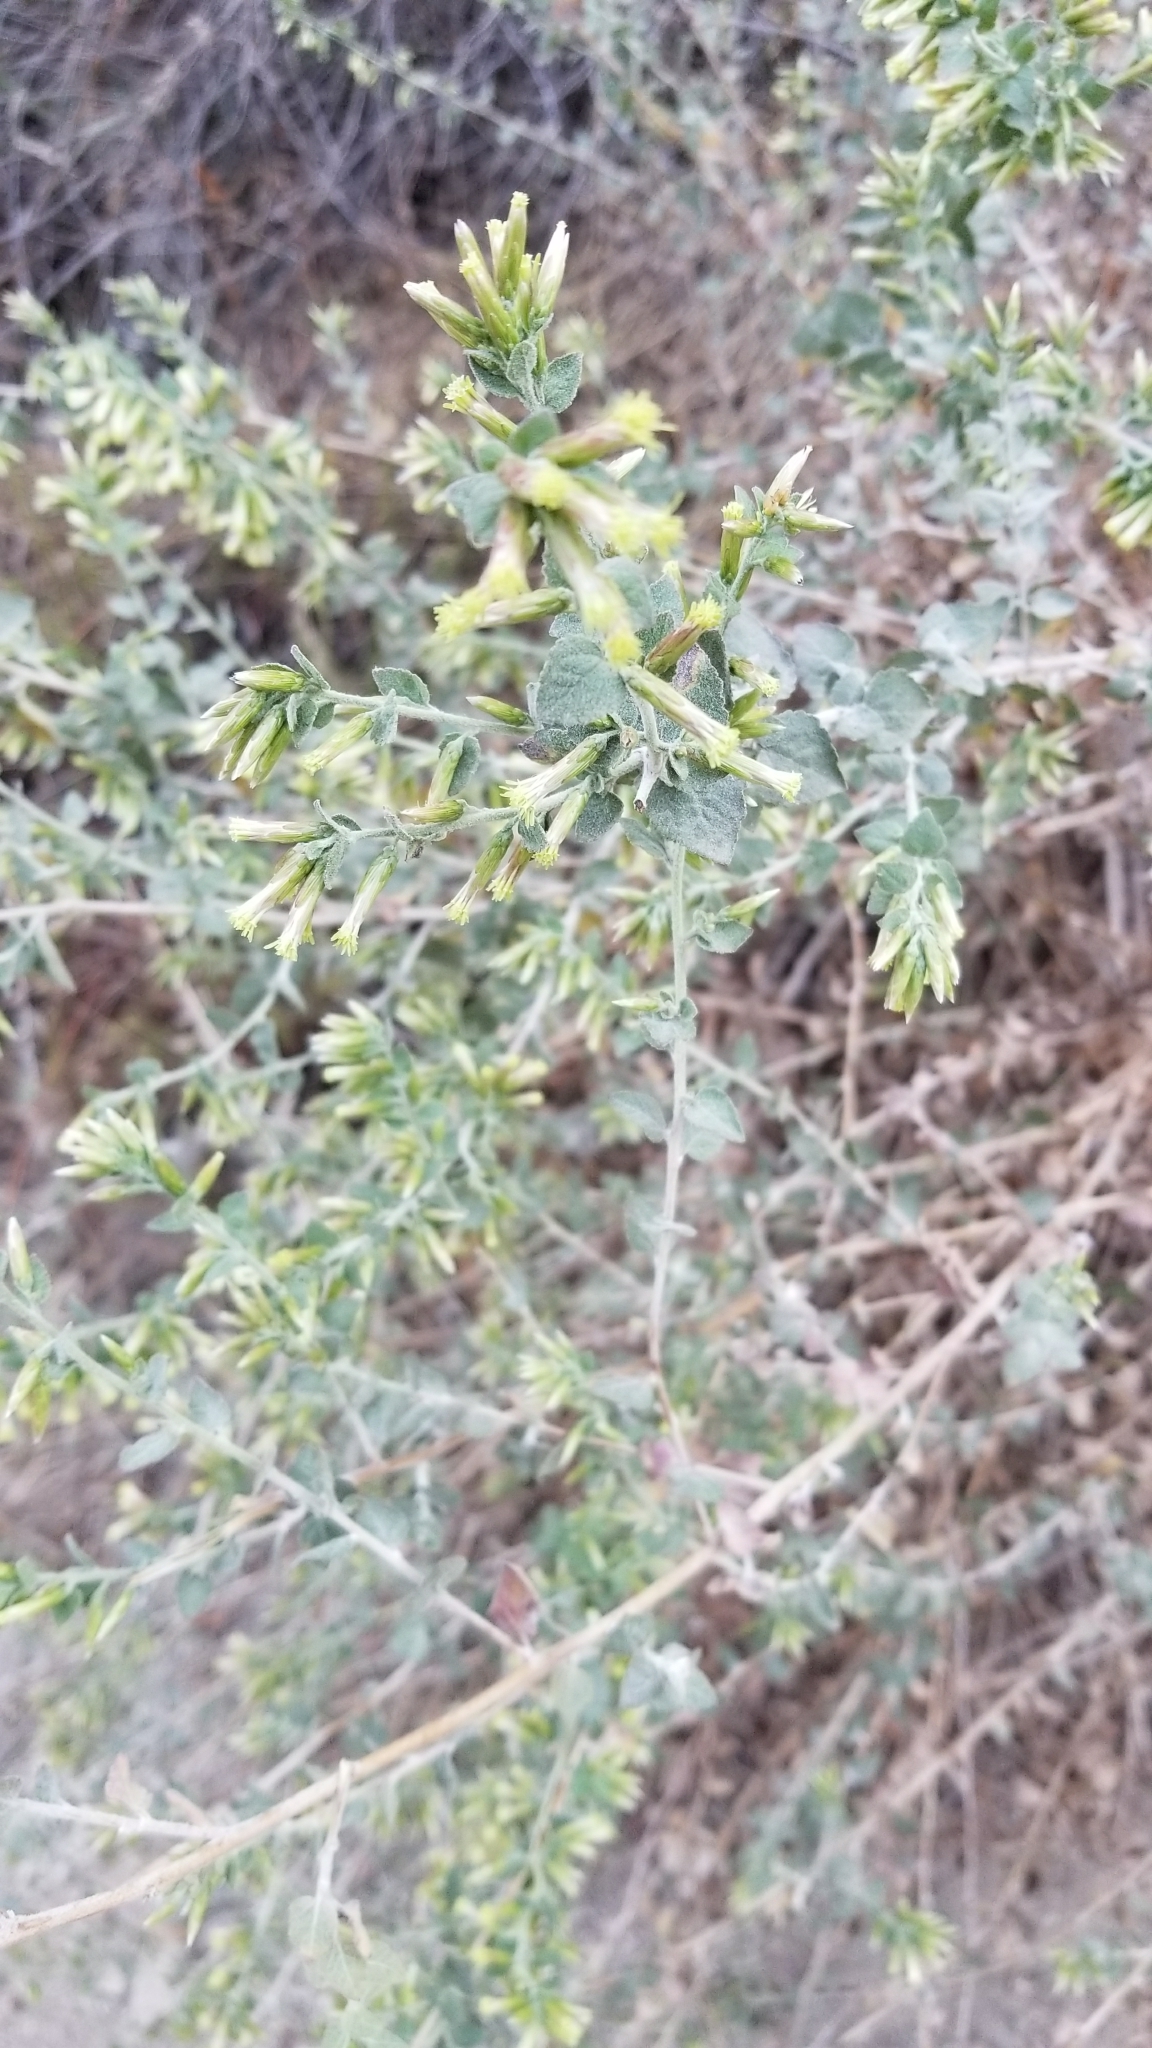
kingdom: Plantae
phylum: Tracheophyta
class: Magnoliopsida
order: Asterales
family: Asteraceae
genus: Brickellia
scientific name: Brickellia californica
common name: California brickellbush
